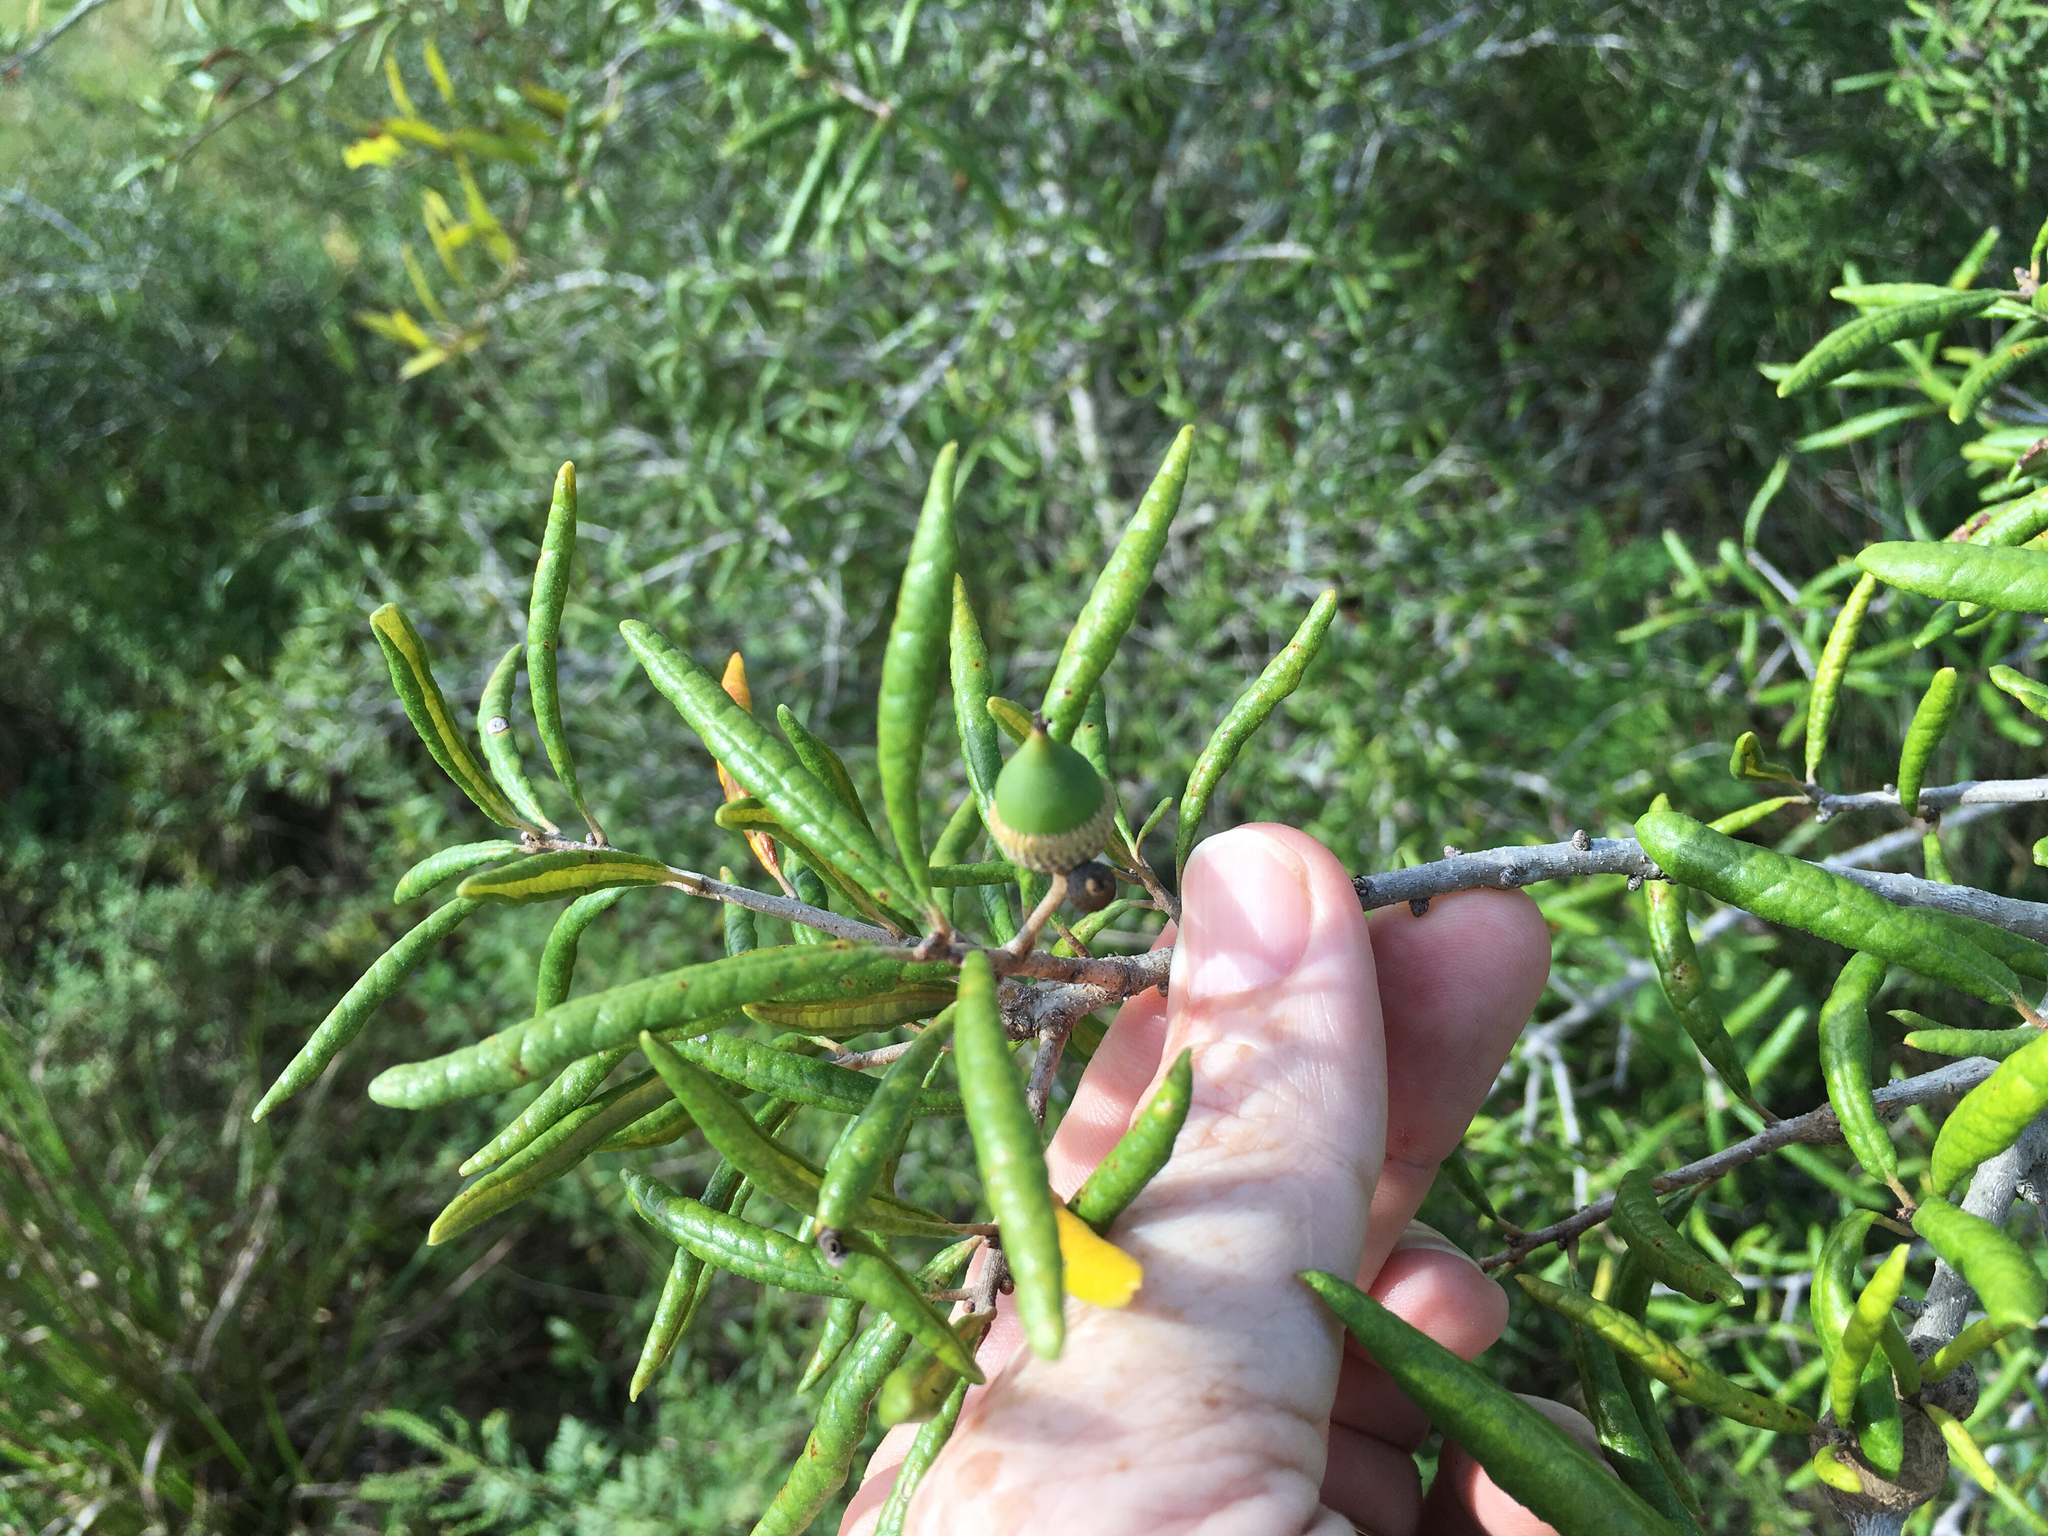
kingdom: Plantae
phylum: Tracheophyta
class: Magnoliopsida
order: Fagales
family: Fagaceae
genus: Quercus
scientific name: Quercus geminata
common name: Sand live oak
